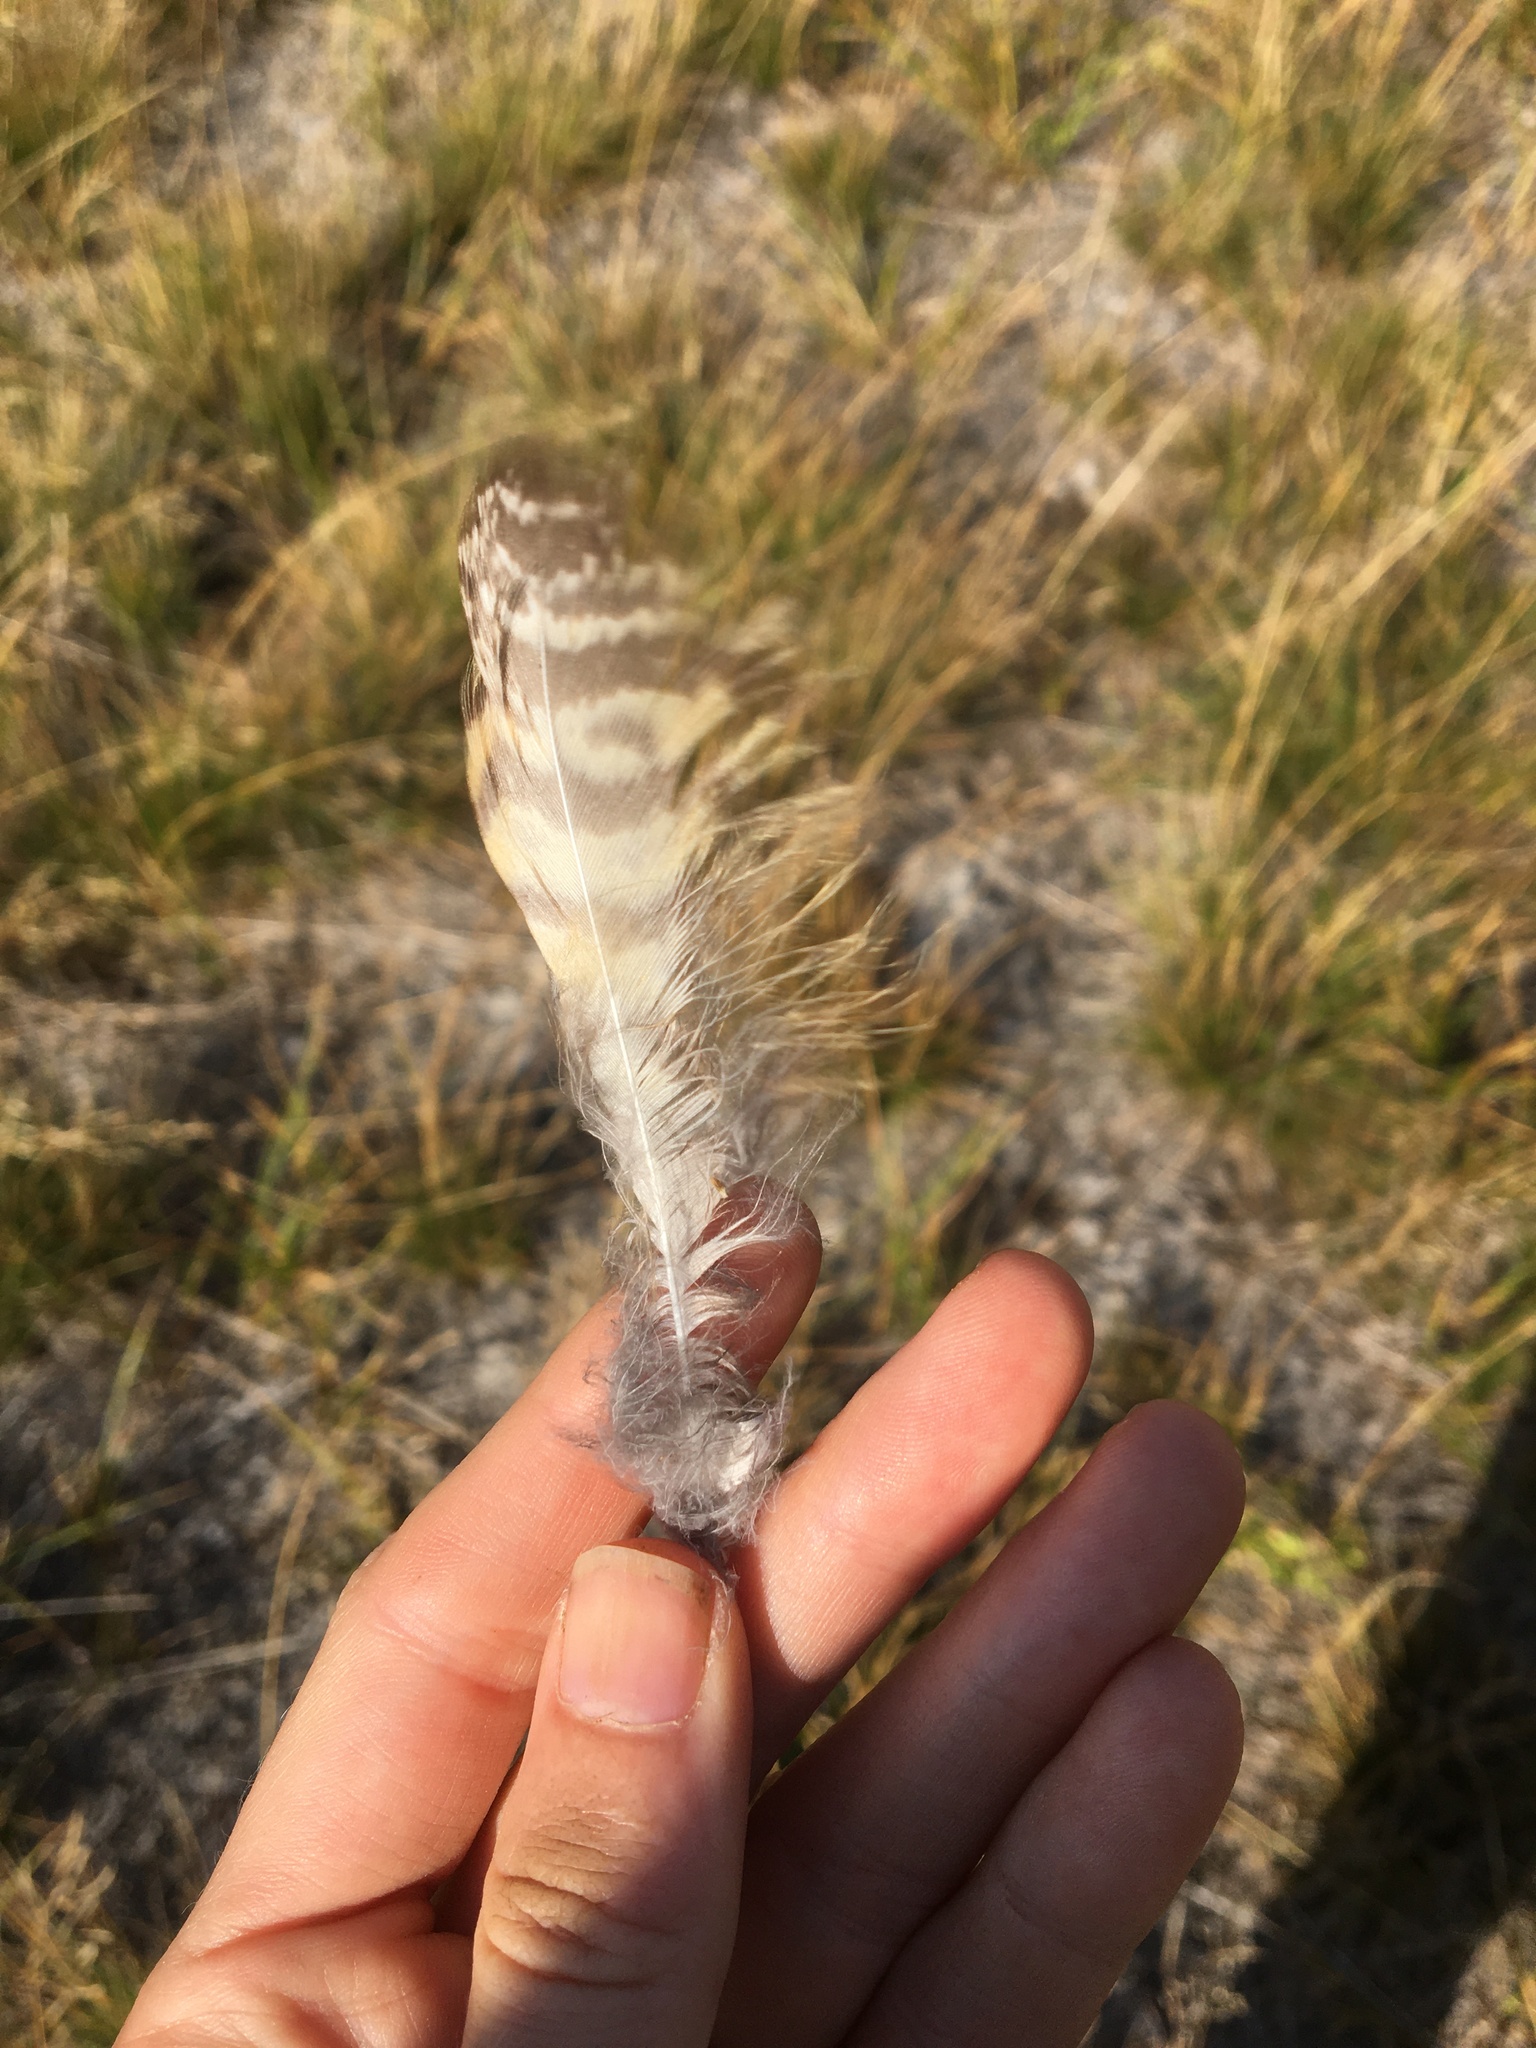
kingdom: Animalia
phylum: Chordata
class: Aves
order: Strigiformes
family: Strigidae
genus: Bubo
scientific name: Bubo virginianus
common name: Great horned owl
